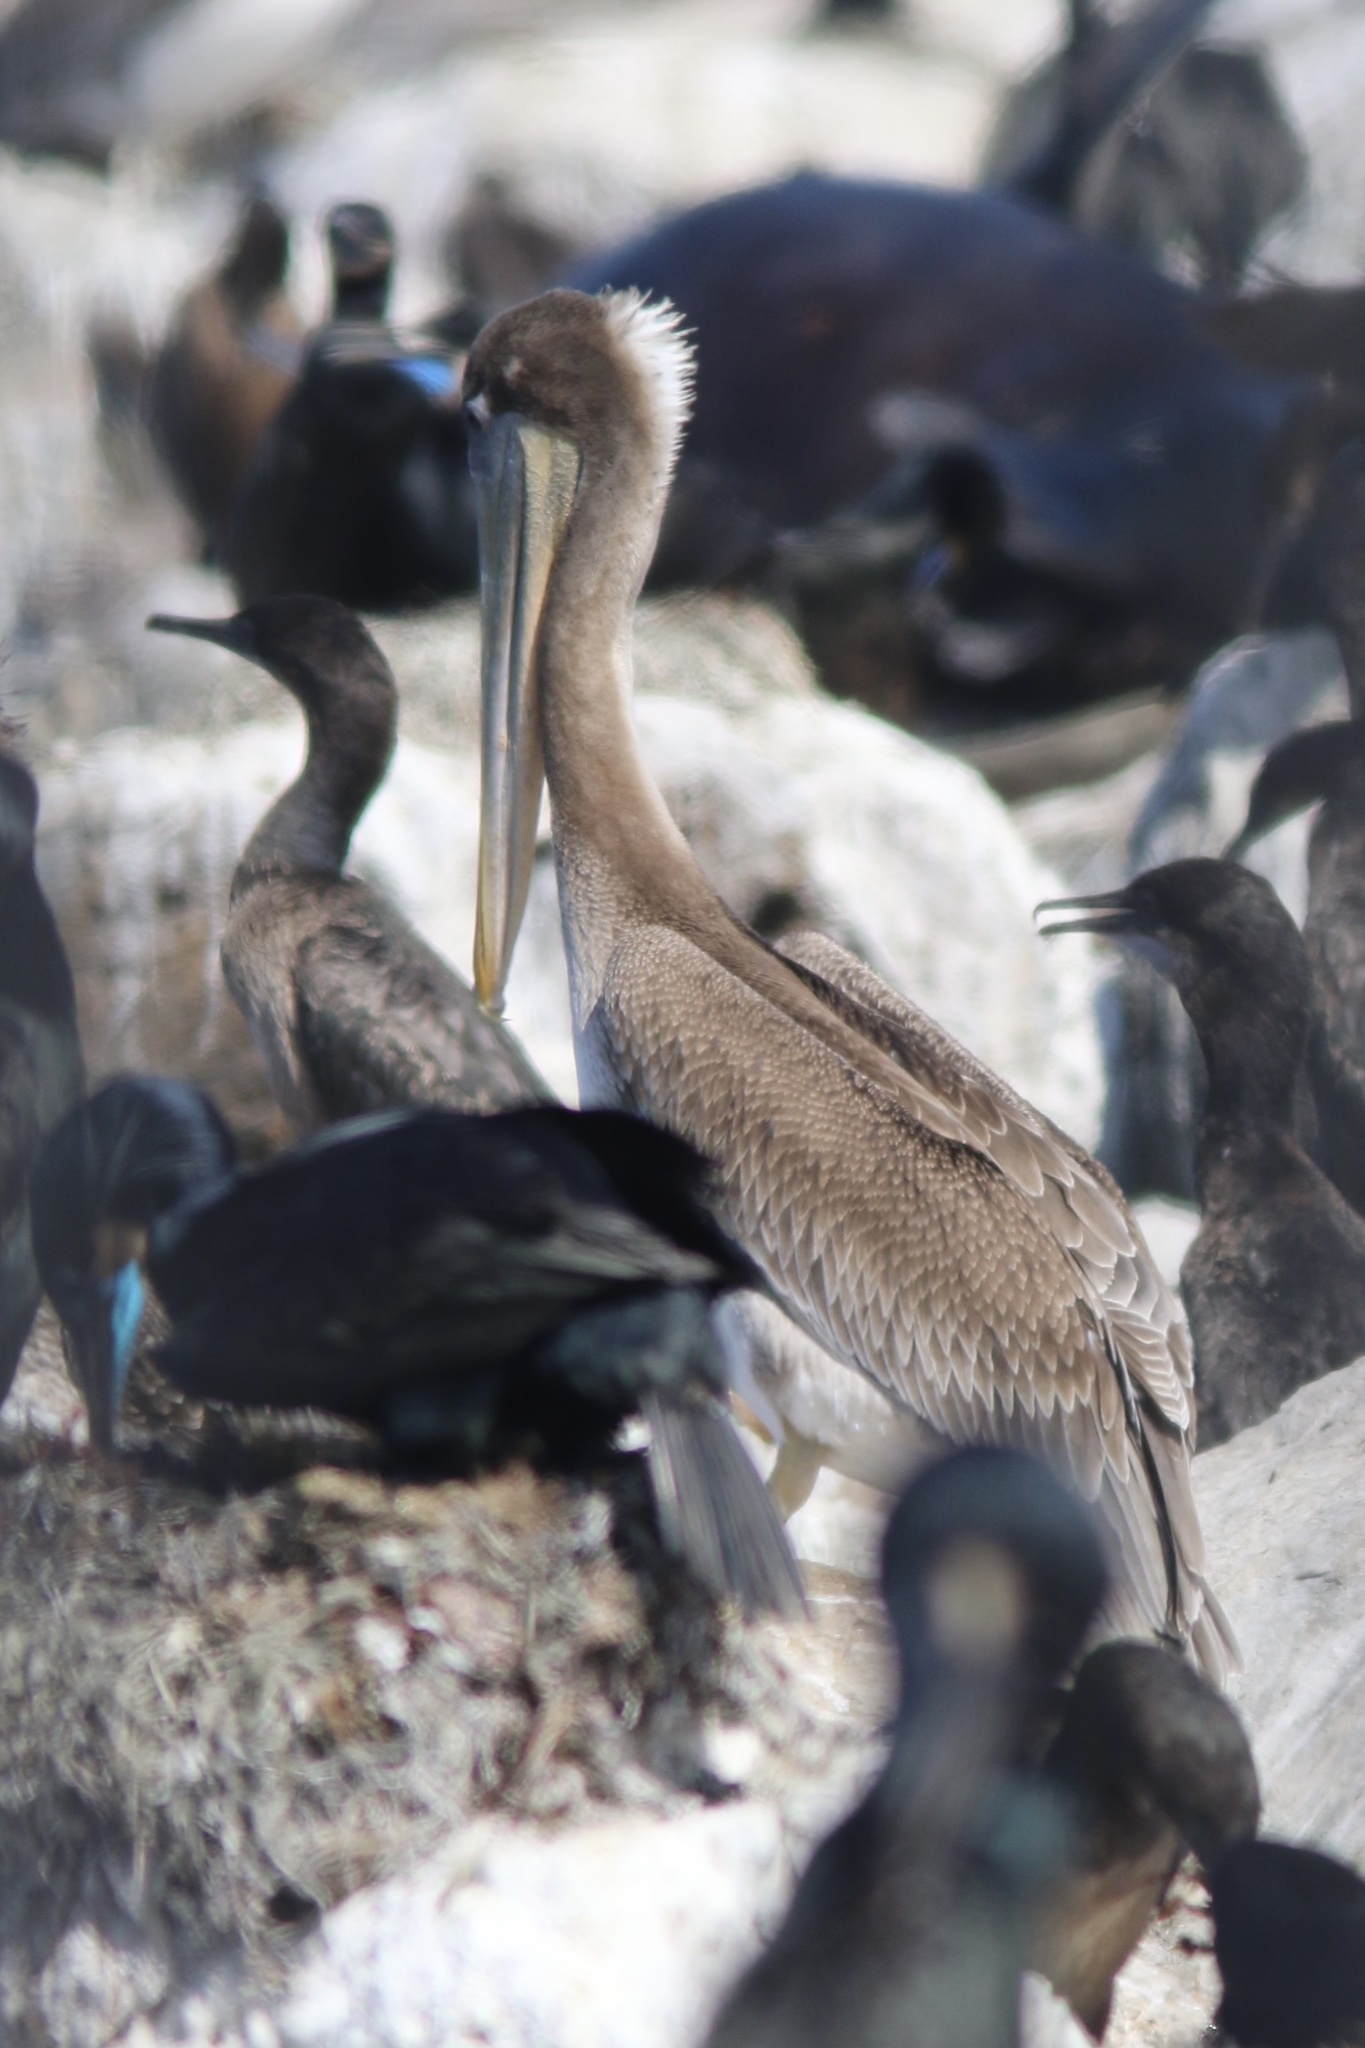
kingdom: Animalia
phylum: Chordata
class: Aves
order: Pelecaniformes
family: Pelecanidae
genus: Pelecanus
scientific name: Pelecanus occidentalis
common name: Brown pelican
